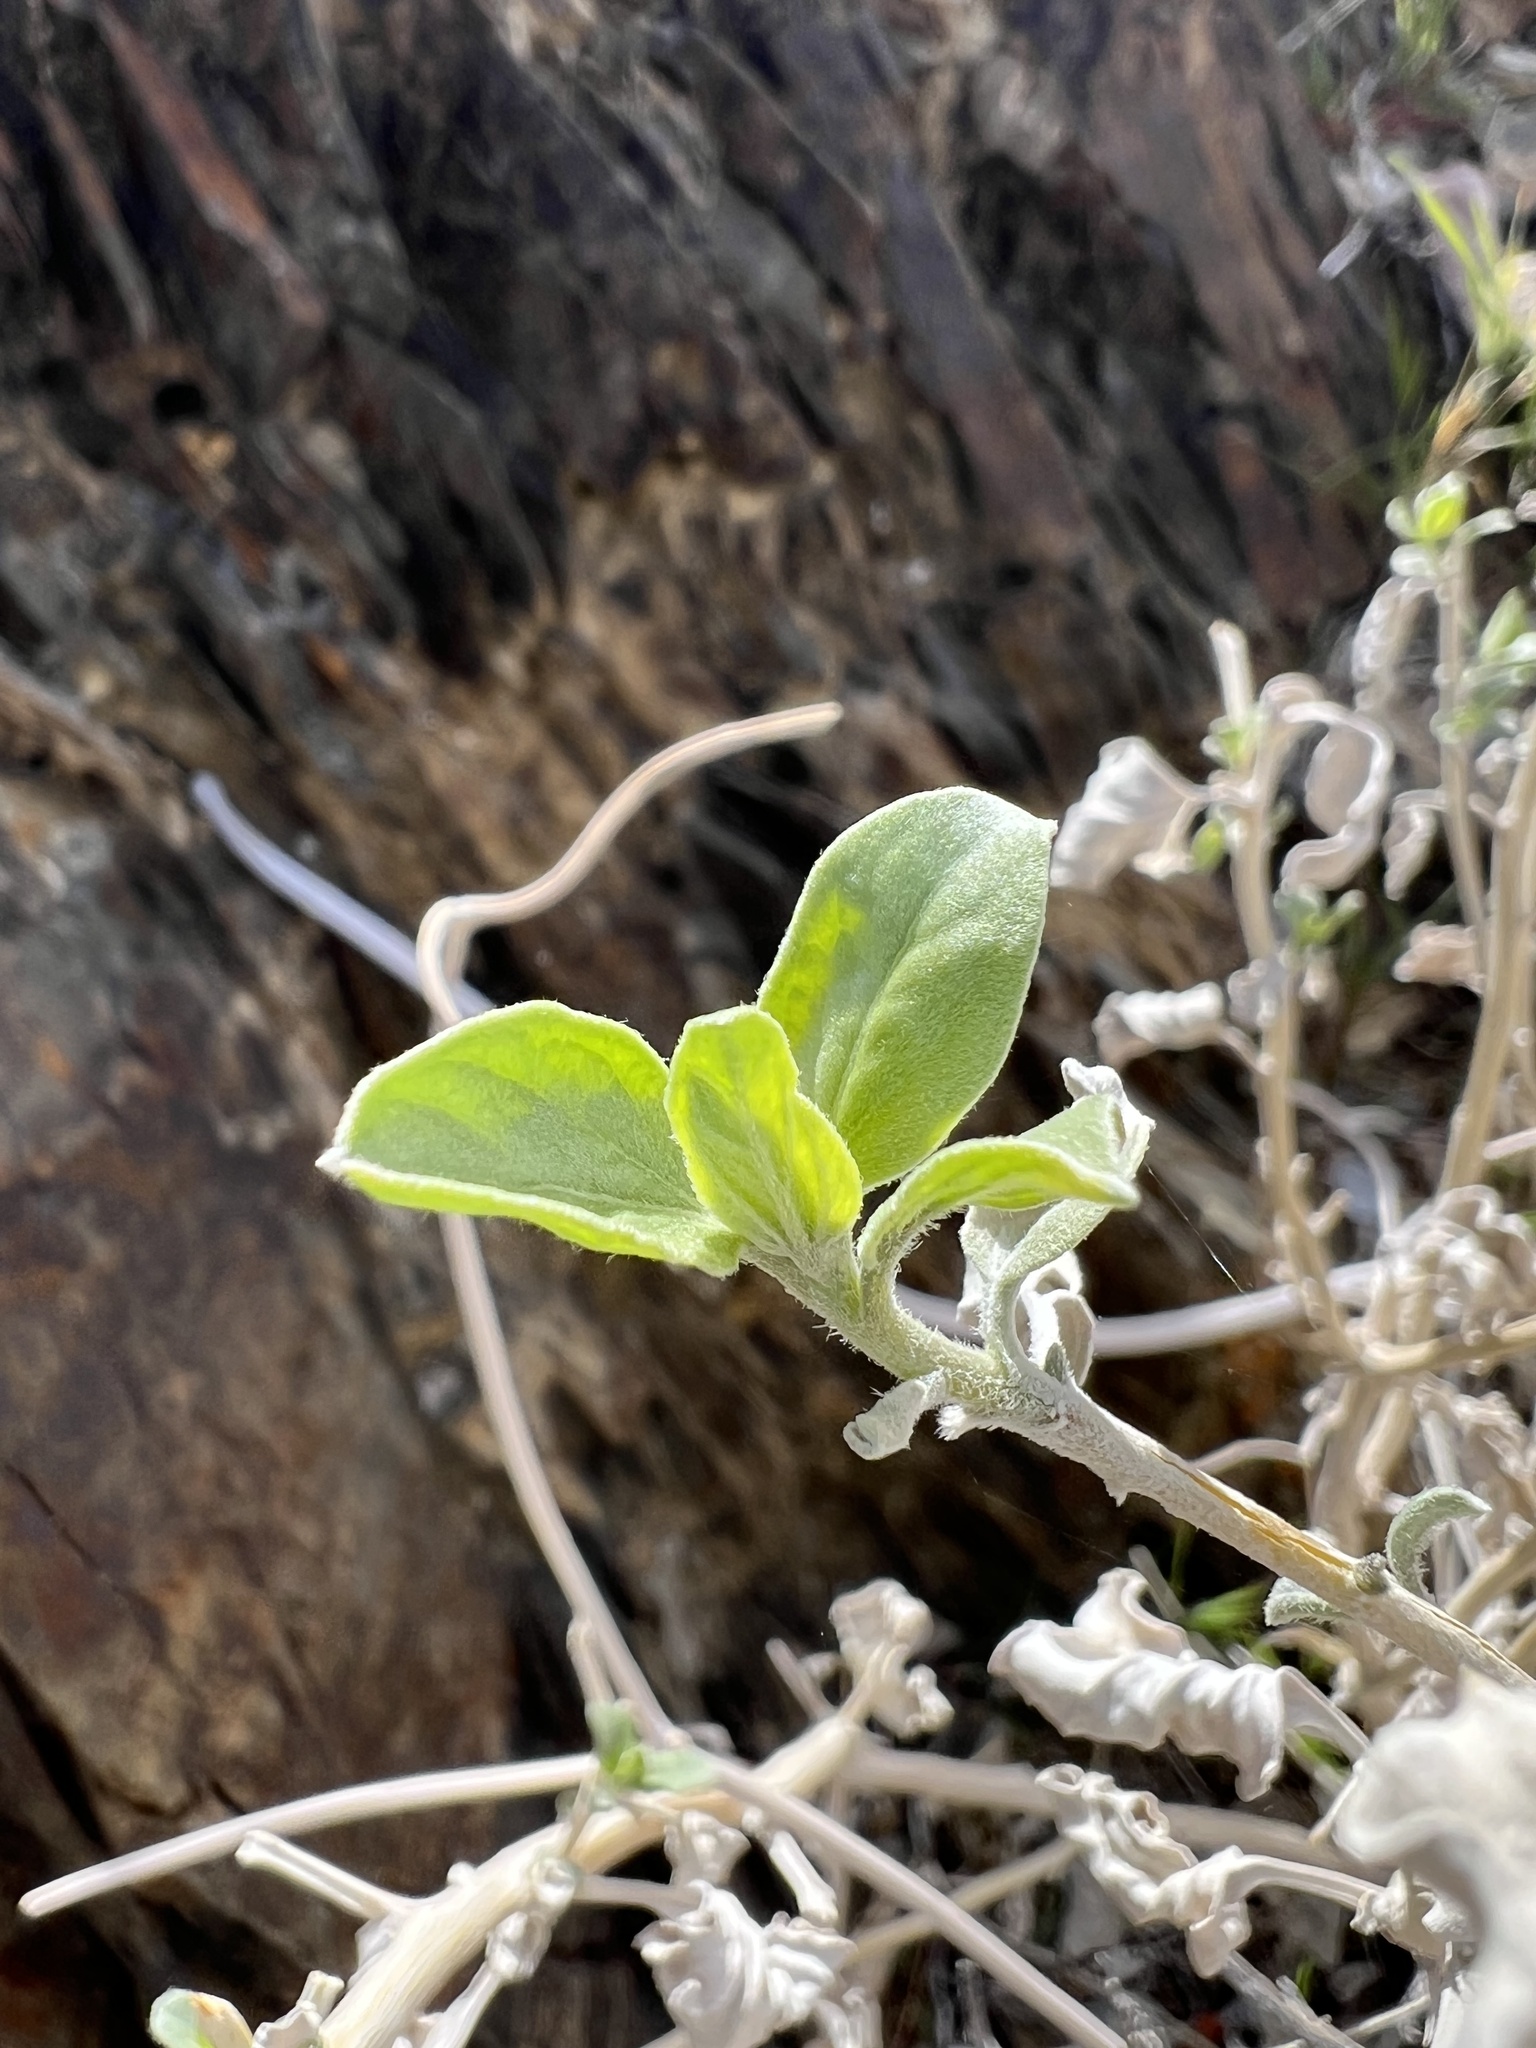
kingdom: Plantae
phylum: Tracheophyta
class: Magnoliopsida
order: Asterales
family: Asteraceae
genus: Encelia
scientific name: Encelia actoni
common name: Acton encelia
